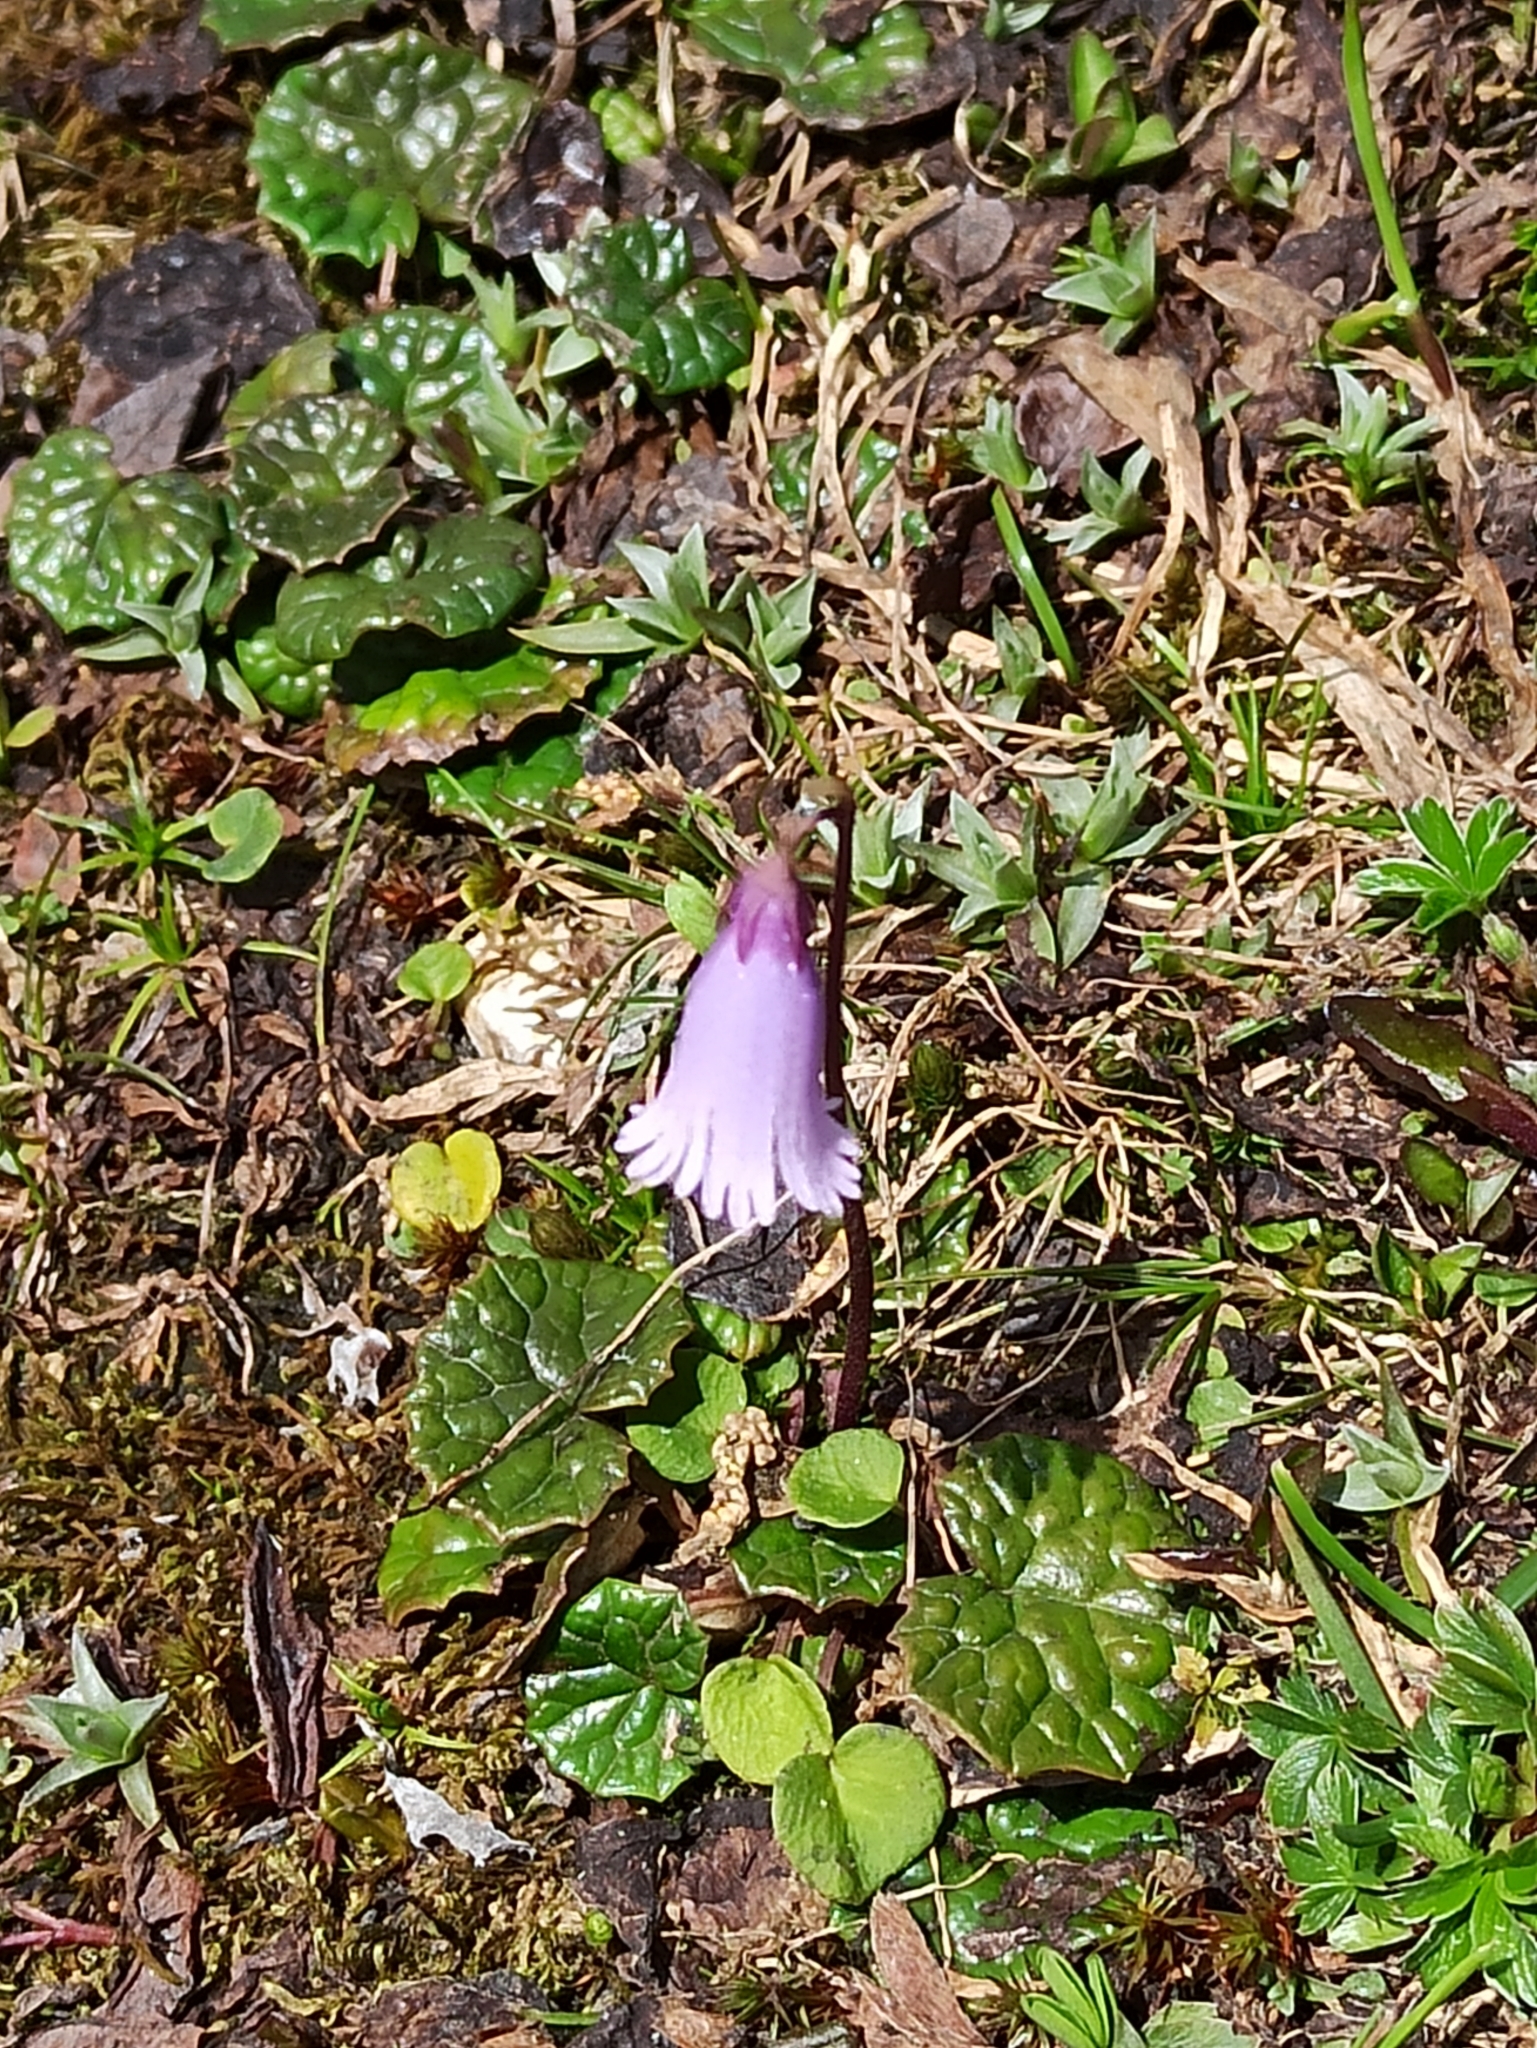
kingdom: Plantae
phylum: Tracheophyta
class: Magnoliopsida
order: Ericales
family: Primulaceae
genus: Soldanella
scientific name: Soldanella pusilla
